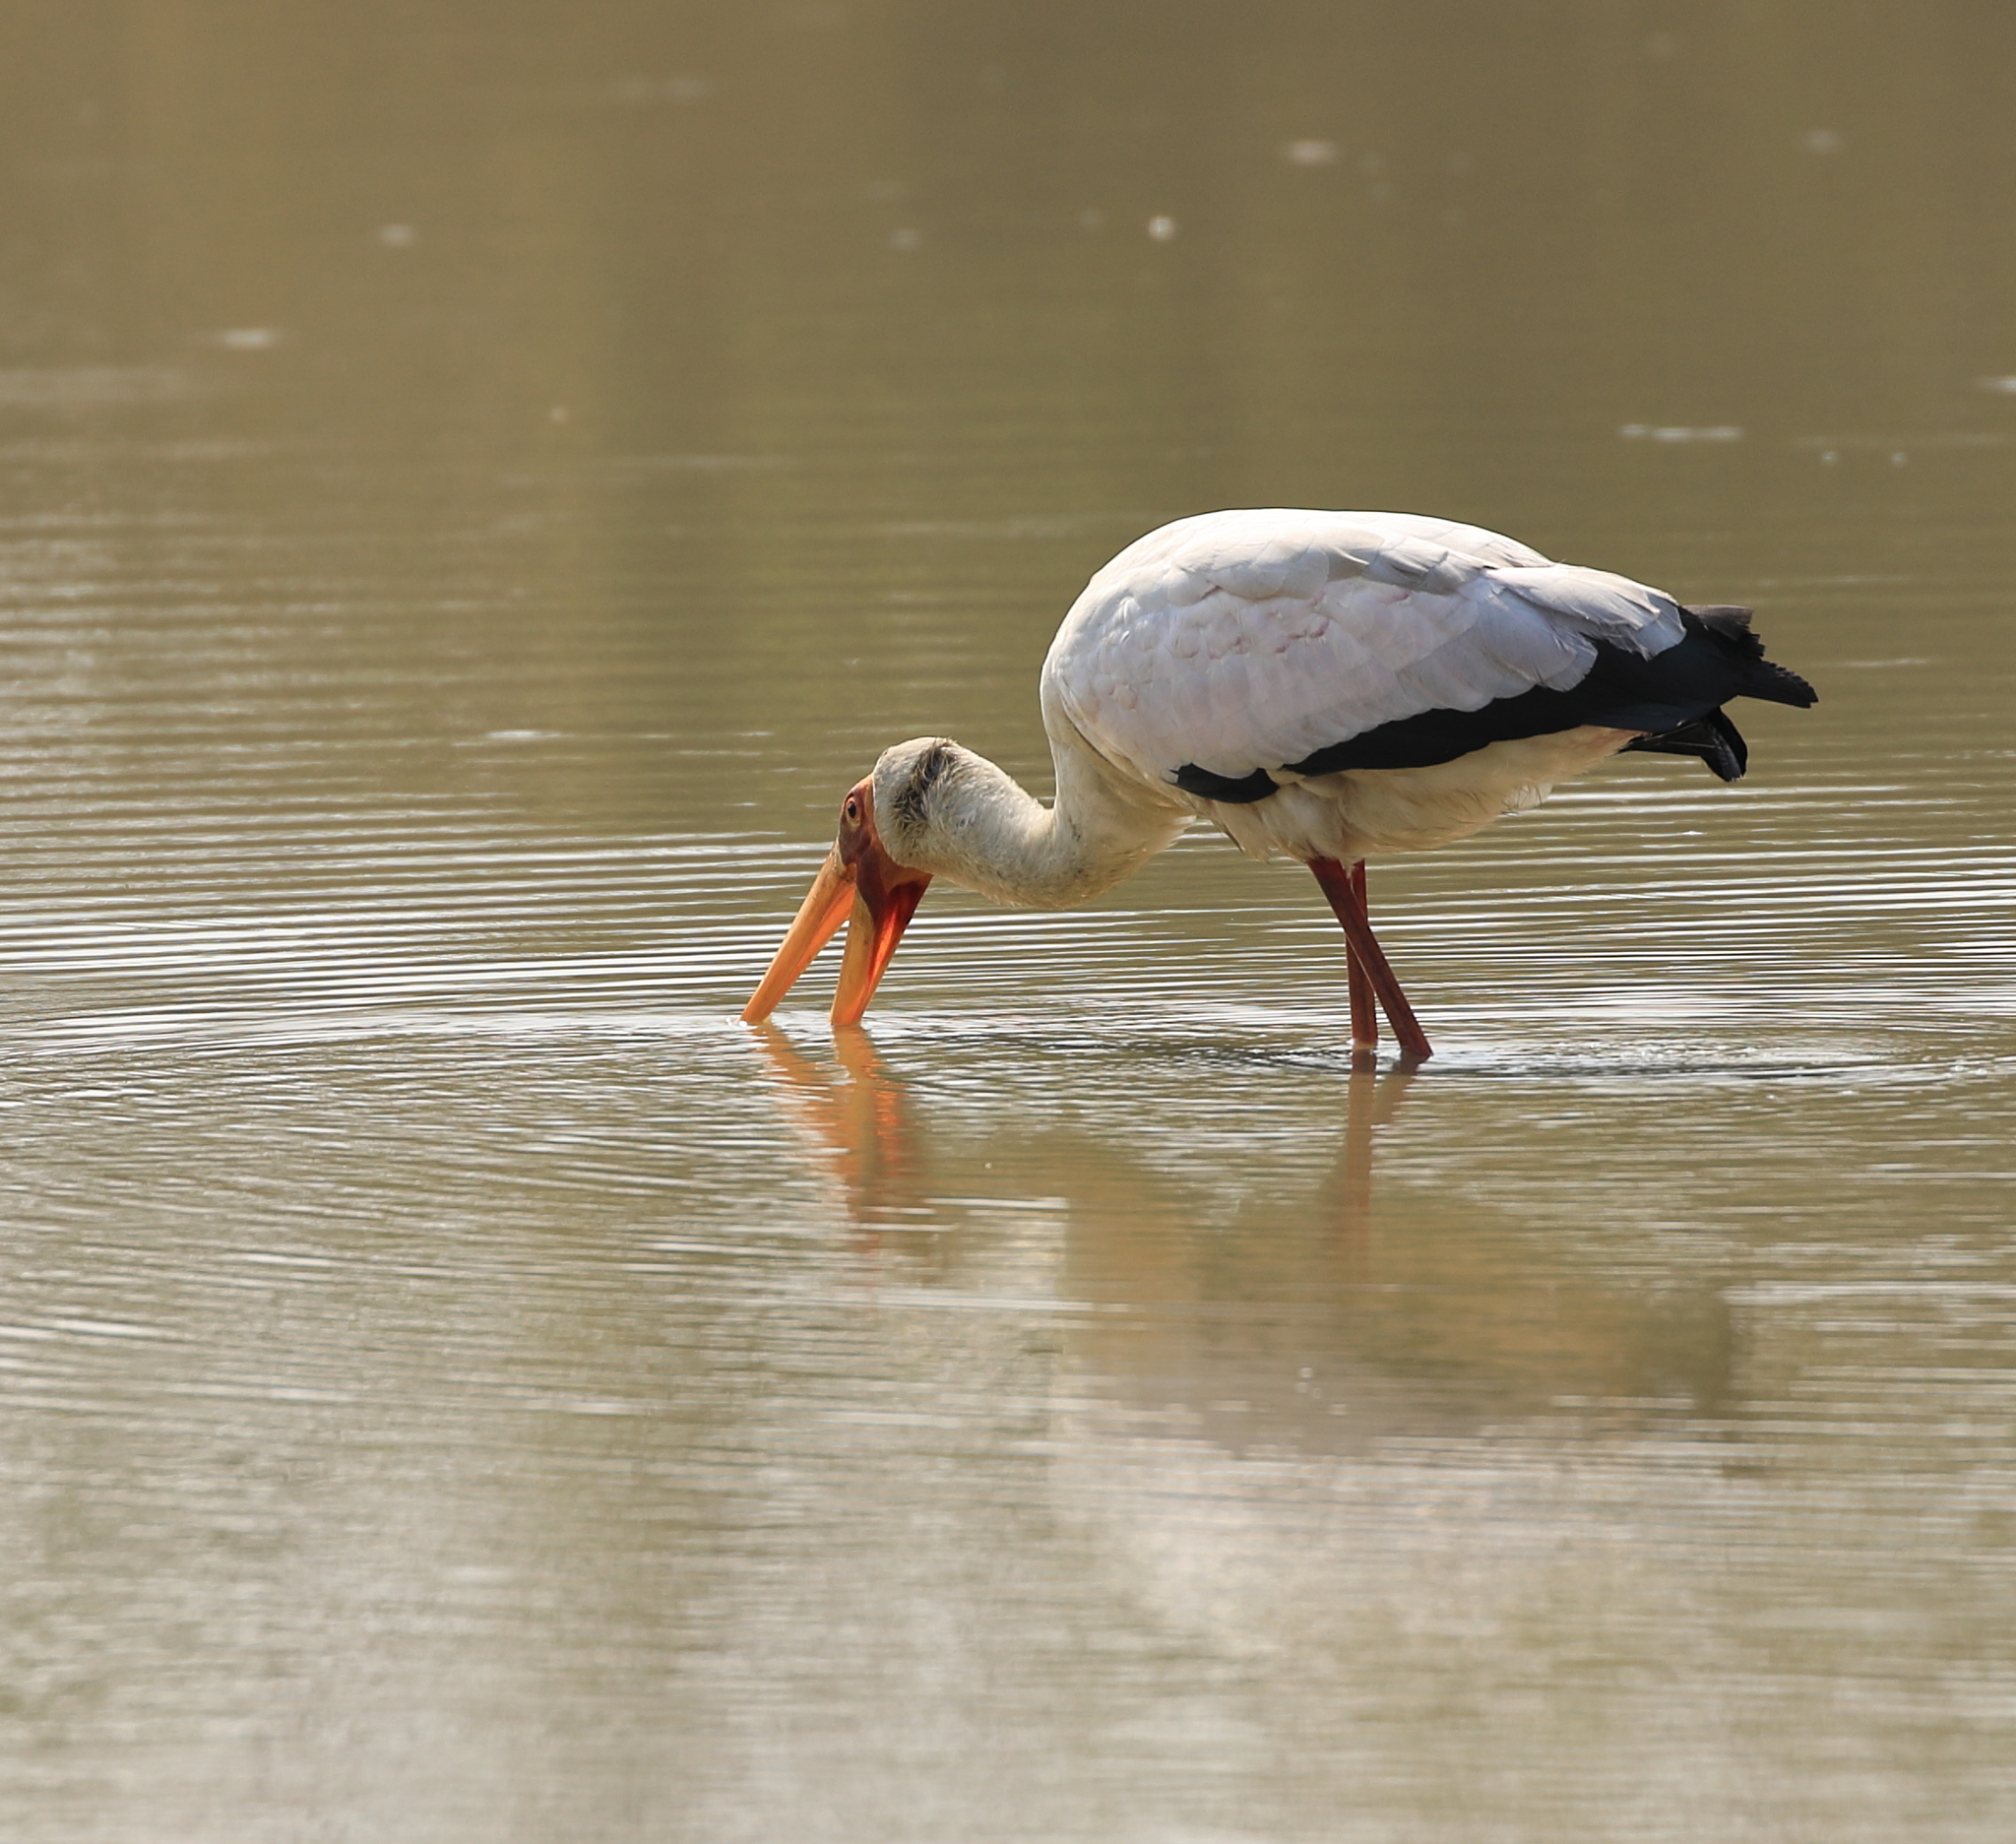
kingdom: Animalia
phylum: Chordata
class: Aves
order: Ciconiiformes
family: Ciconiidae
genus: Mycteria
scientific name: Mycteria ibis
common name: Yellow-billed stork
